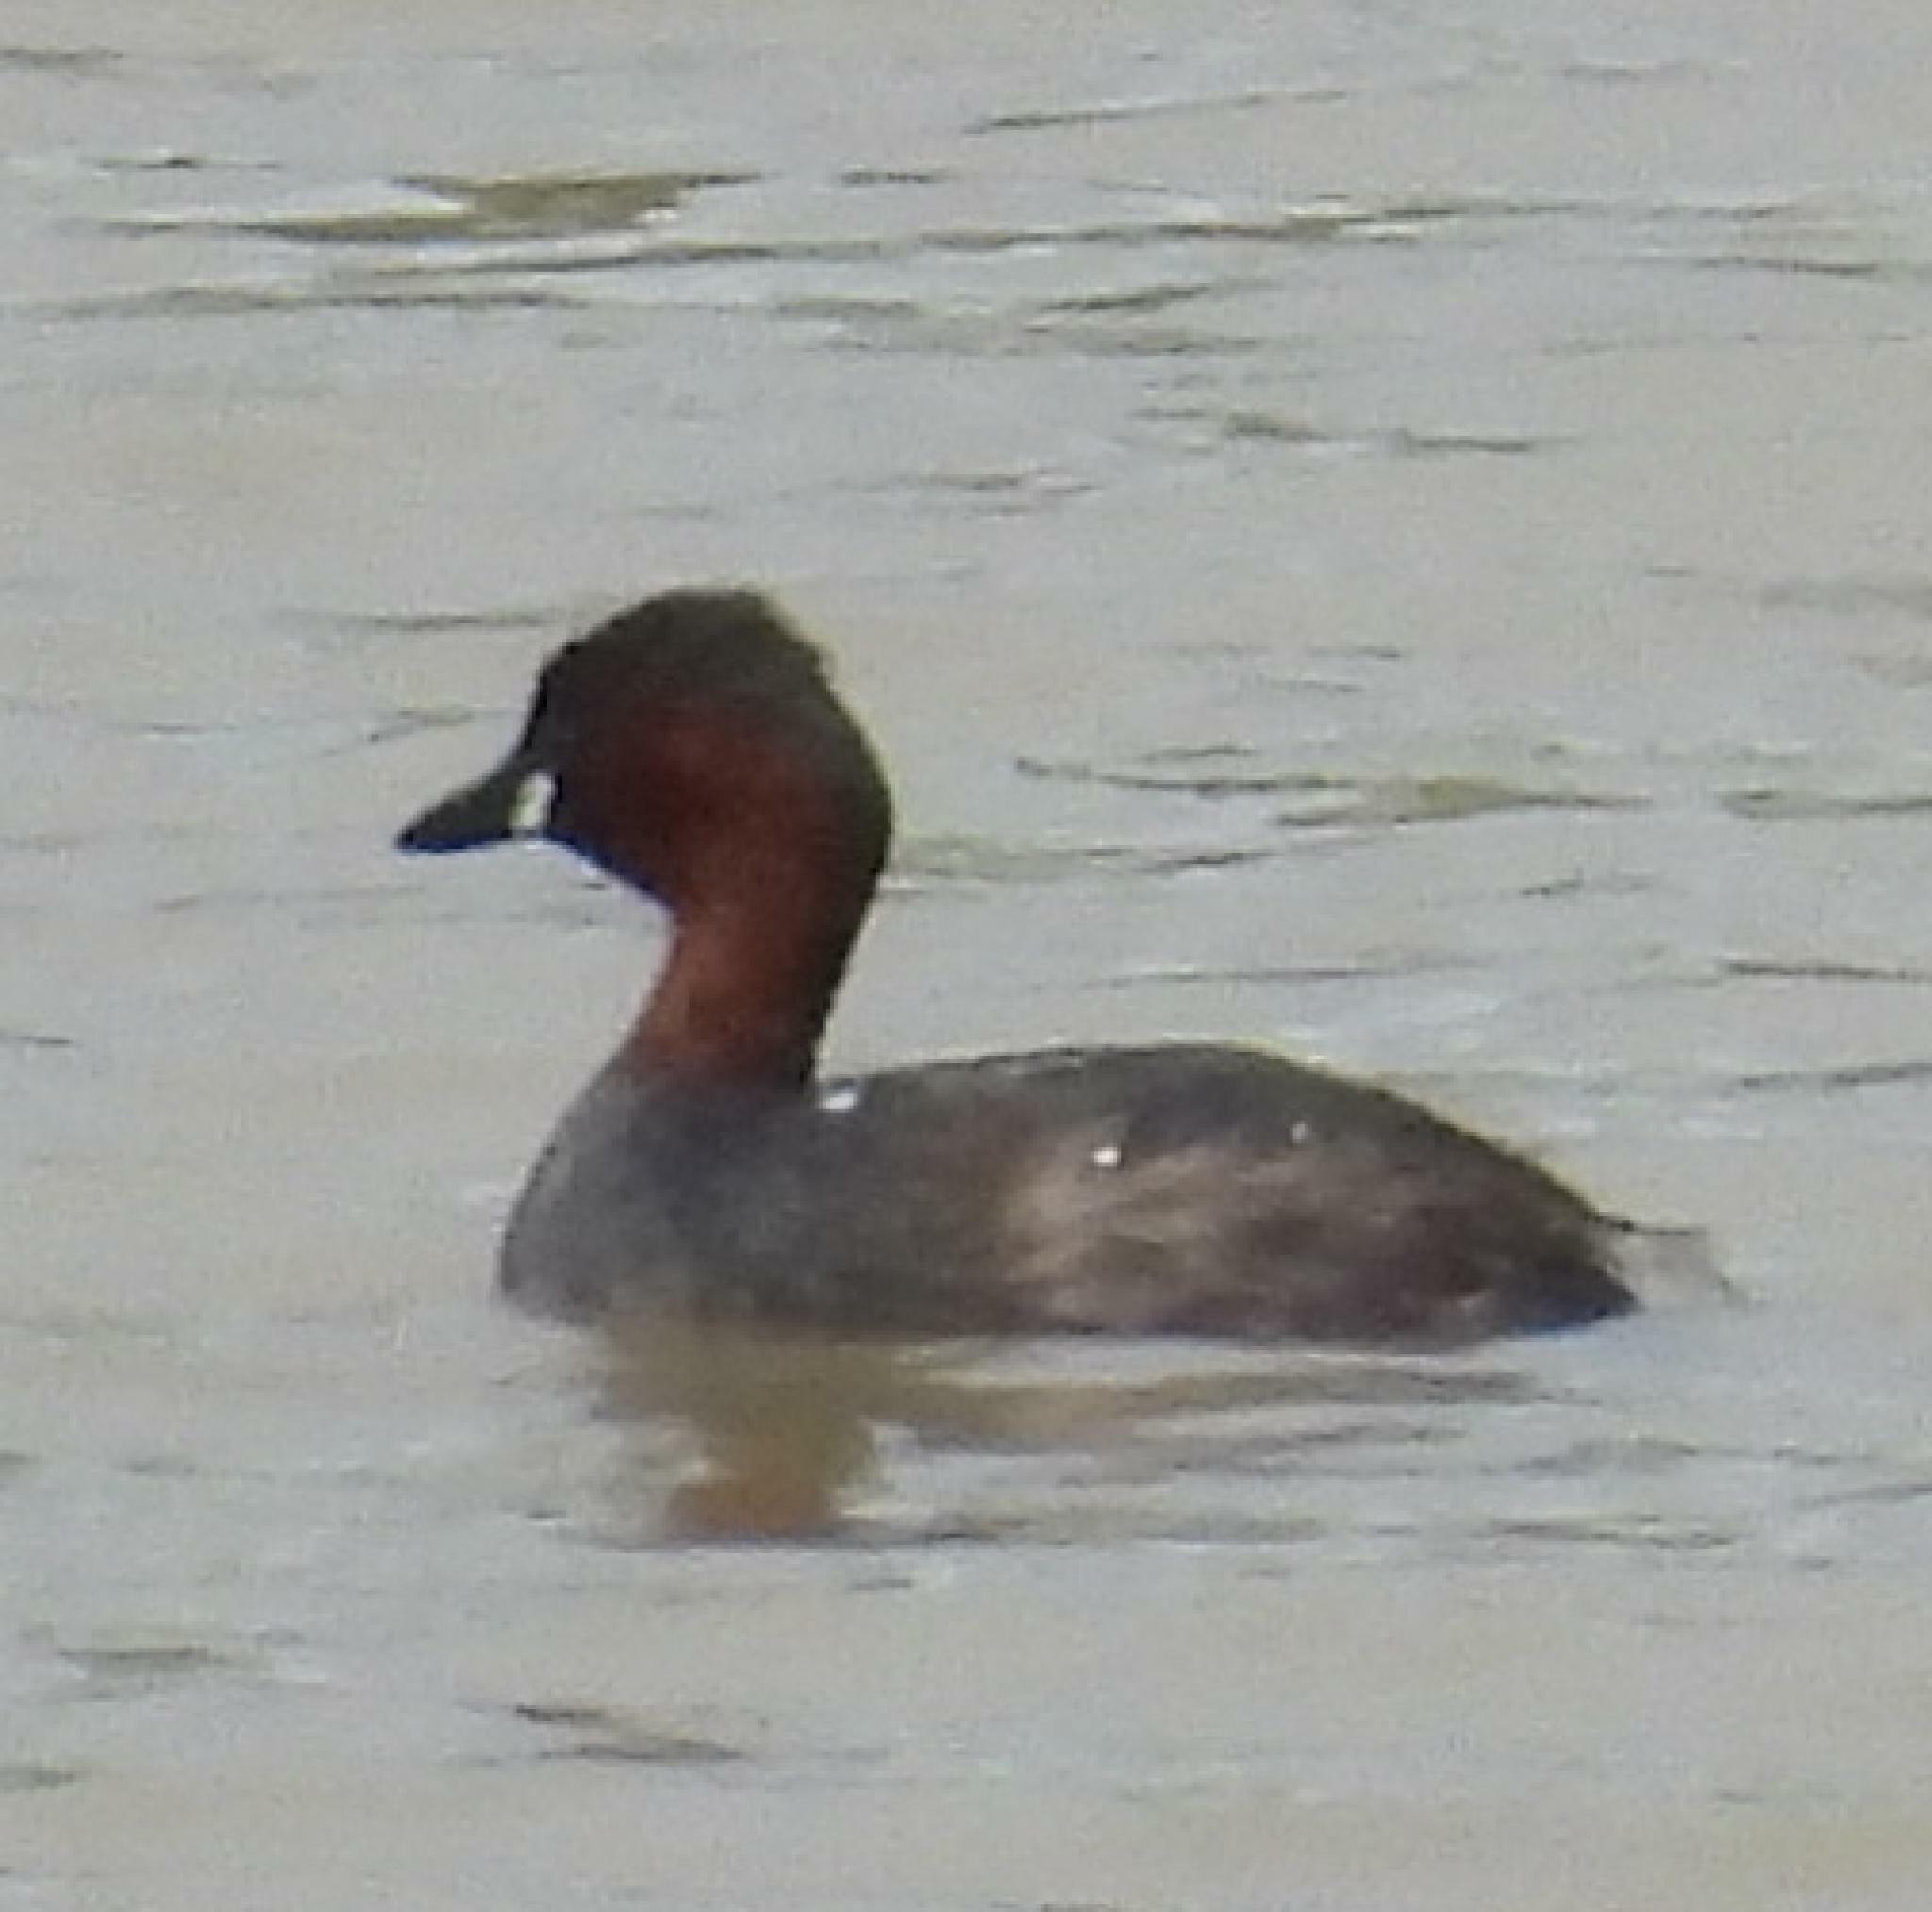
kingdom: Animalia
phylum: Chordata
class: Aves
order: Podicipediformes
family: Podicipedidae
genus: Tachybaptus
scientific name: Tachybaptus ruficollis
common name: Little grebe
